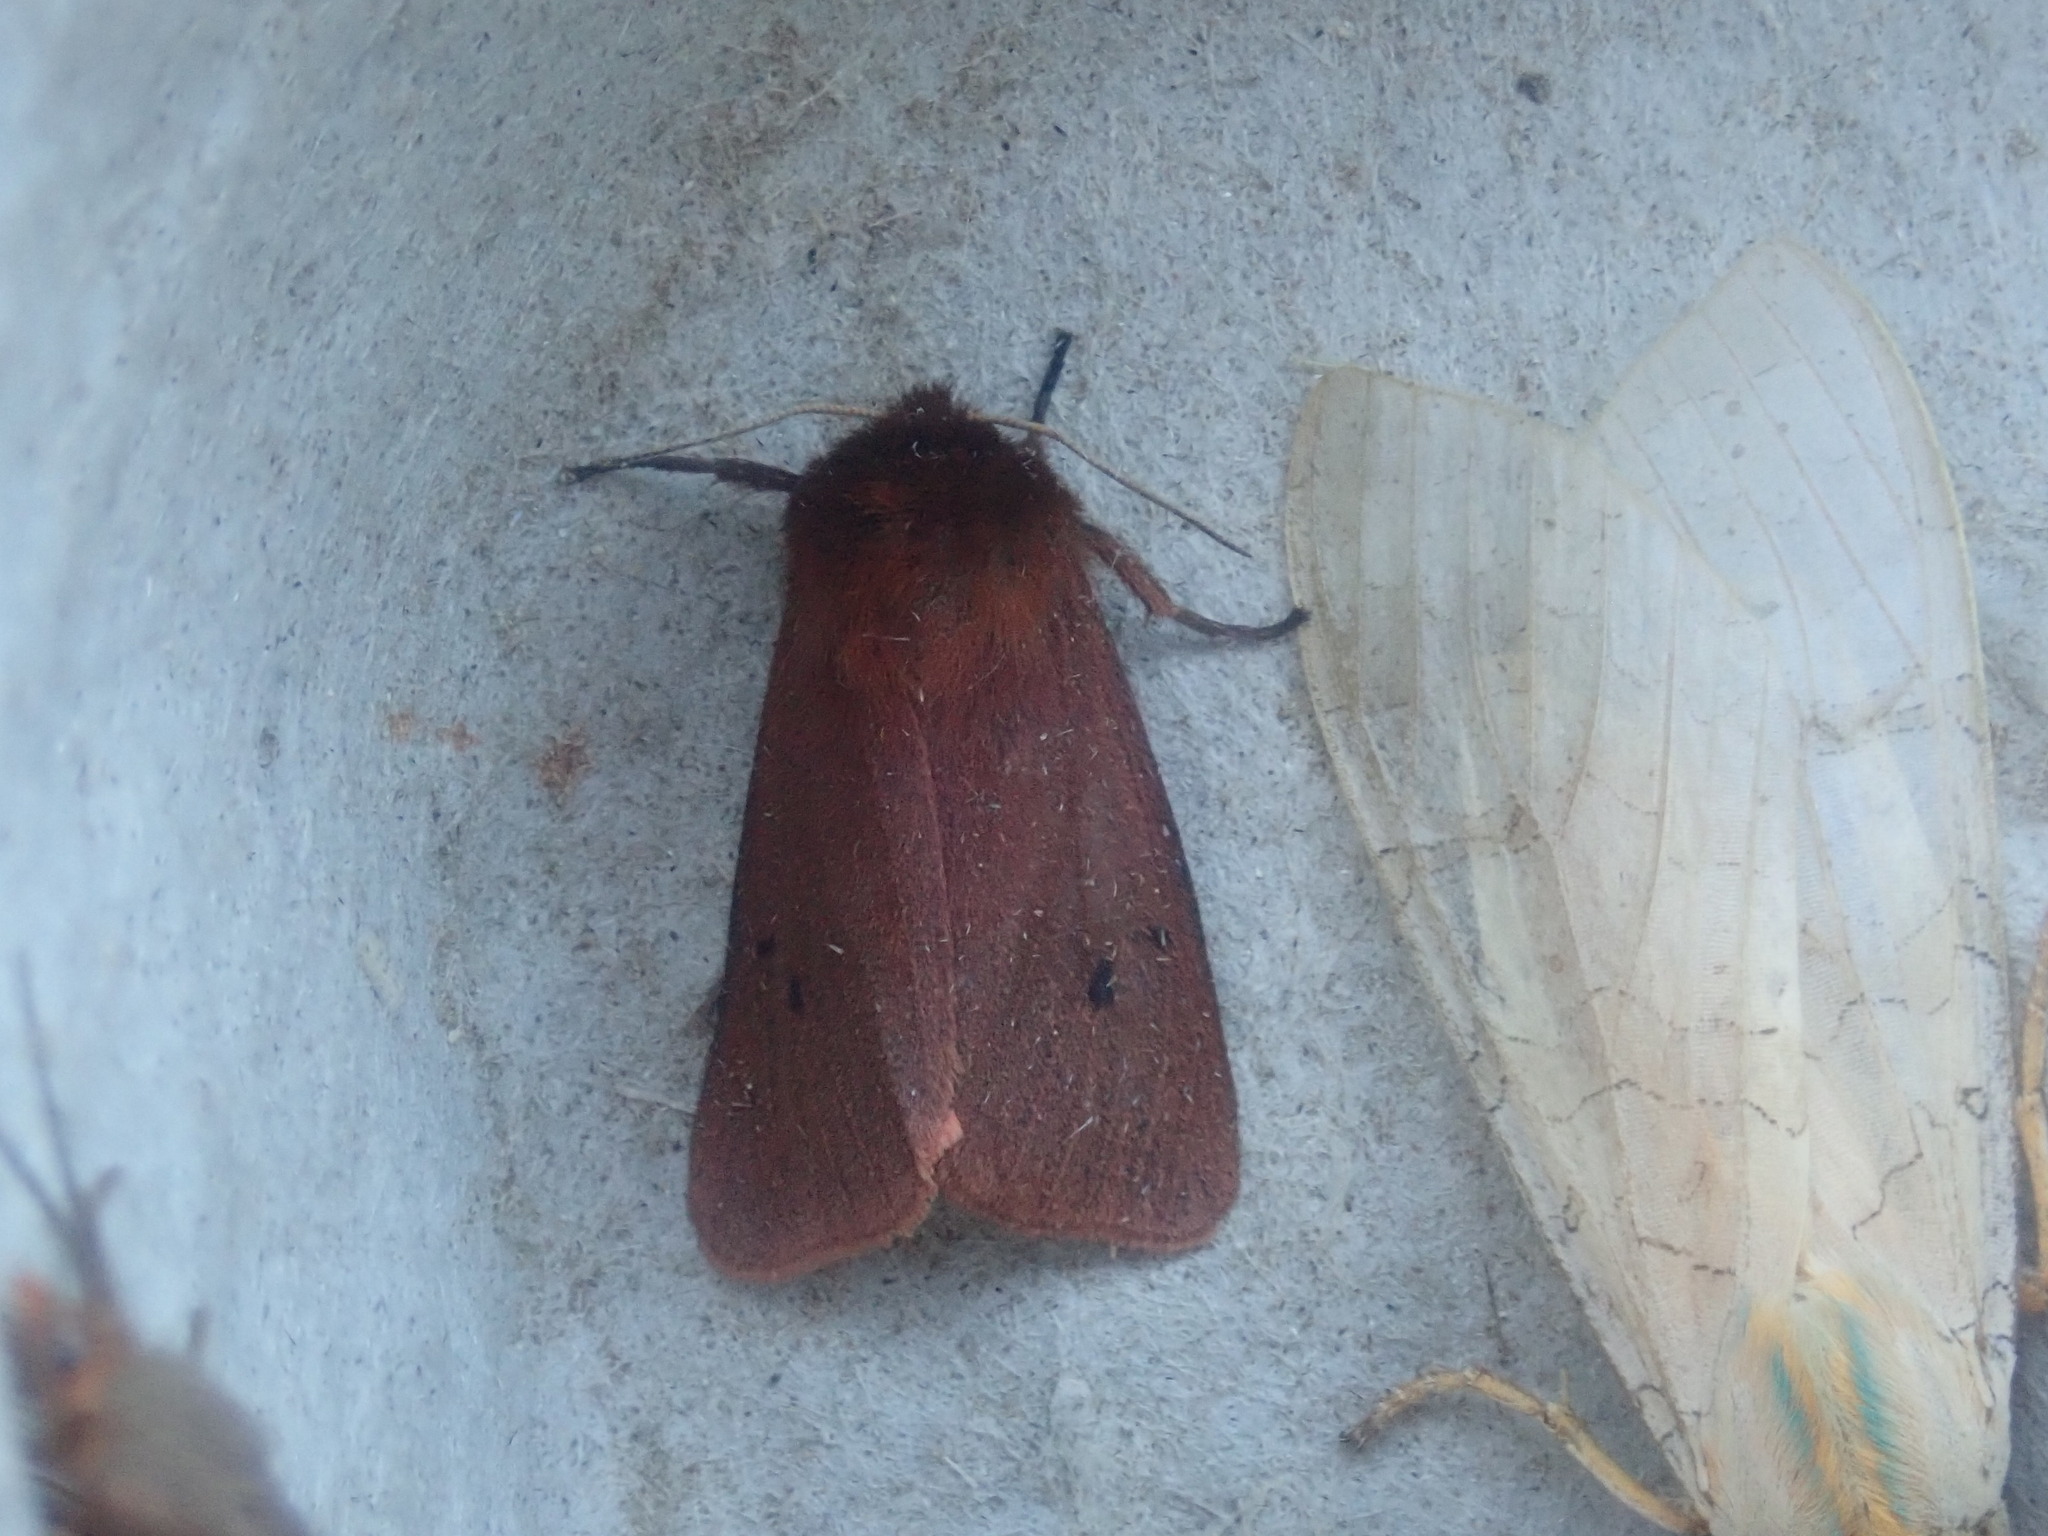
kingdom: Animalia
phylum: Arthropoda
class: Insecta
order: Lepidoptera
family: Erebidae
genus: Phragmatobia
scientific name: Phragmatobia fuliginosa
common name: Ruby tiger
